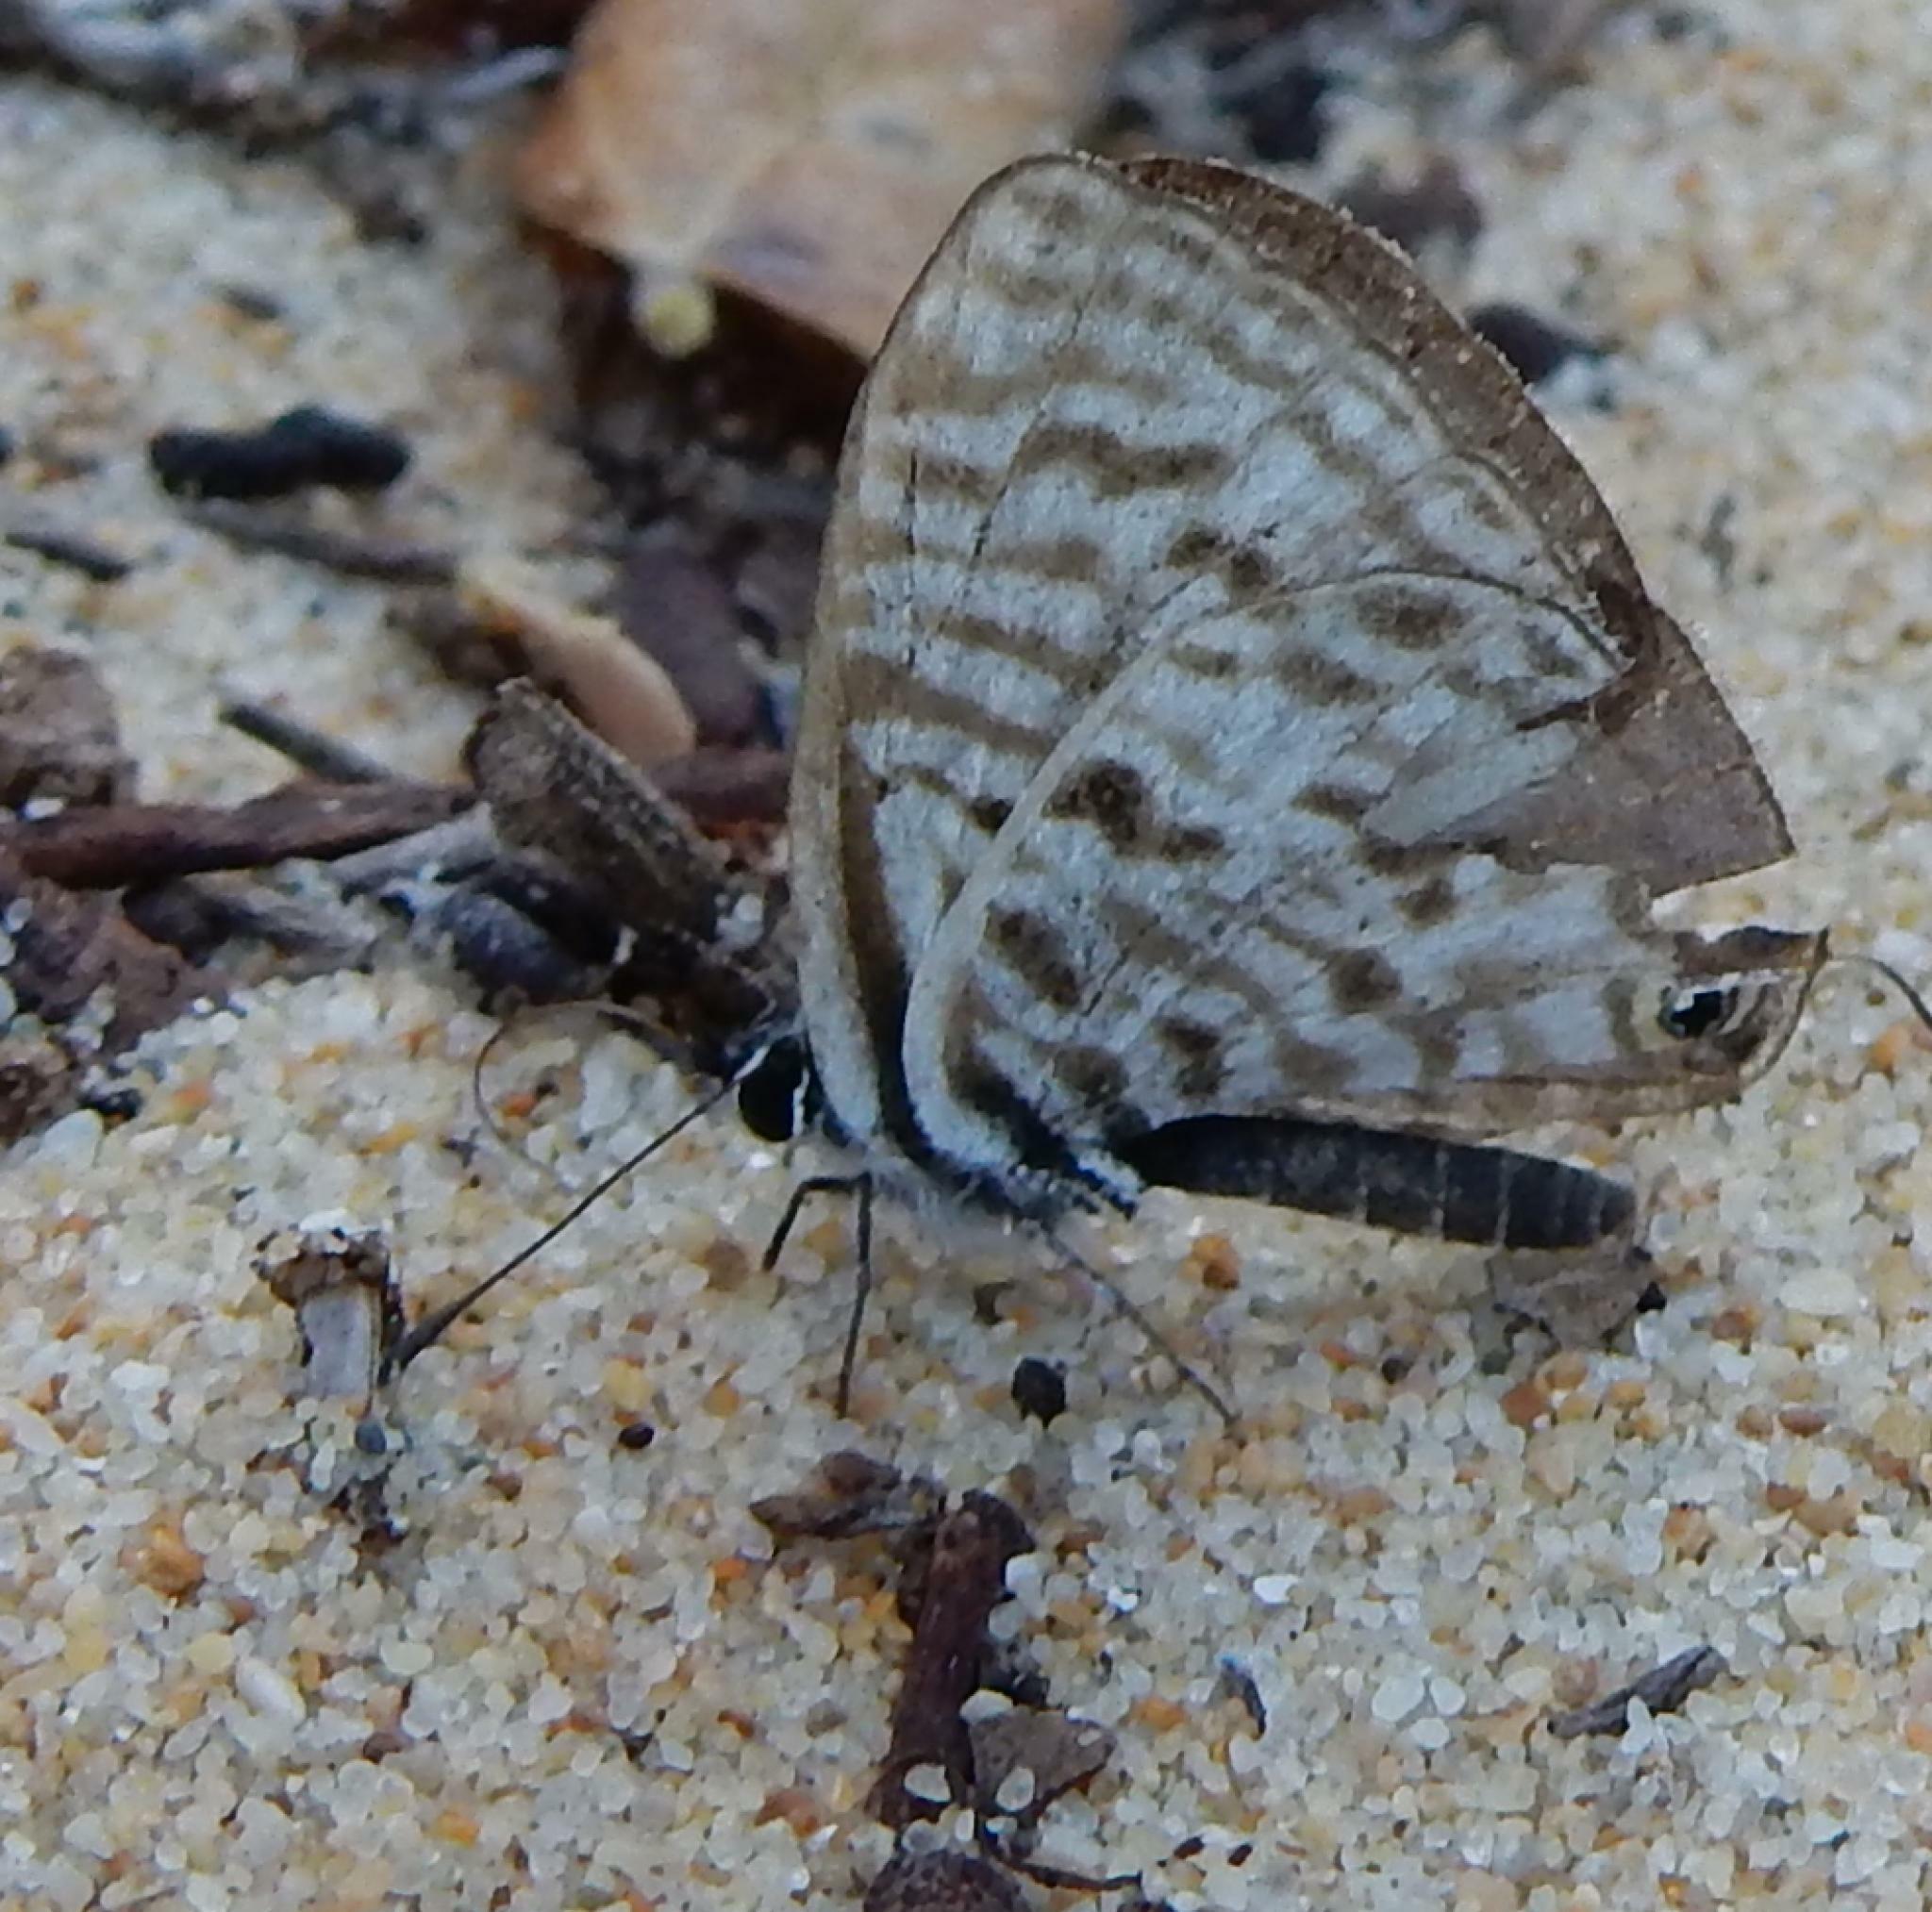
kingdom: Animalia
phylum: Arthropoda
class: Insecta
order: Lepidoptera
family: Lycaenidae
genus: Leptotes
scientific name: Leptotes
